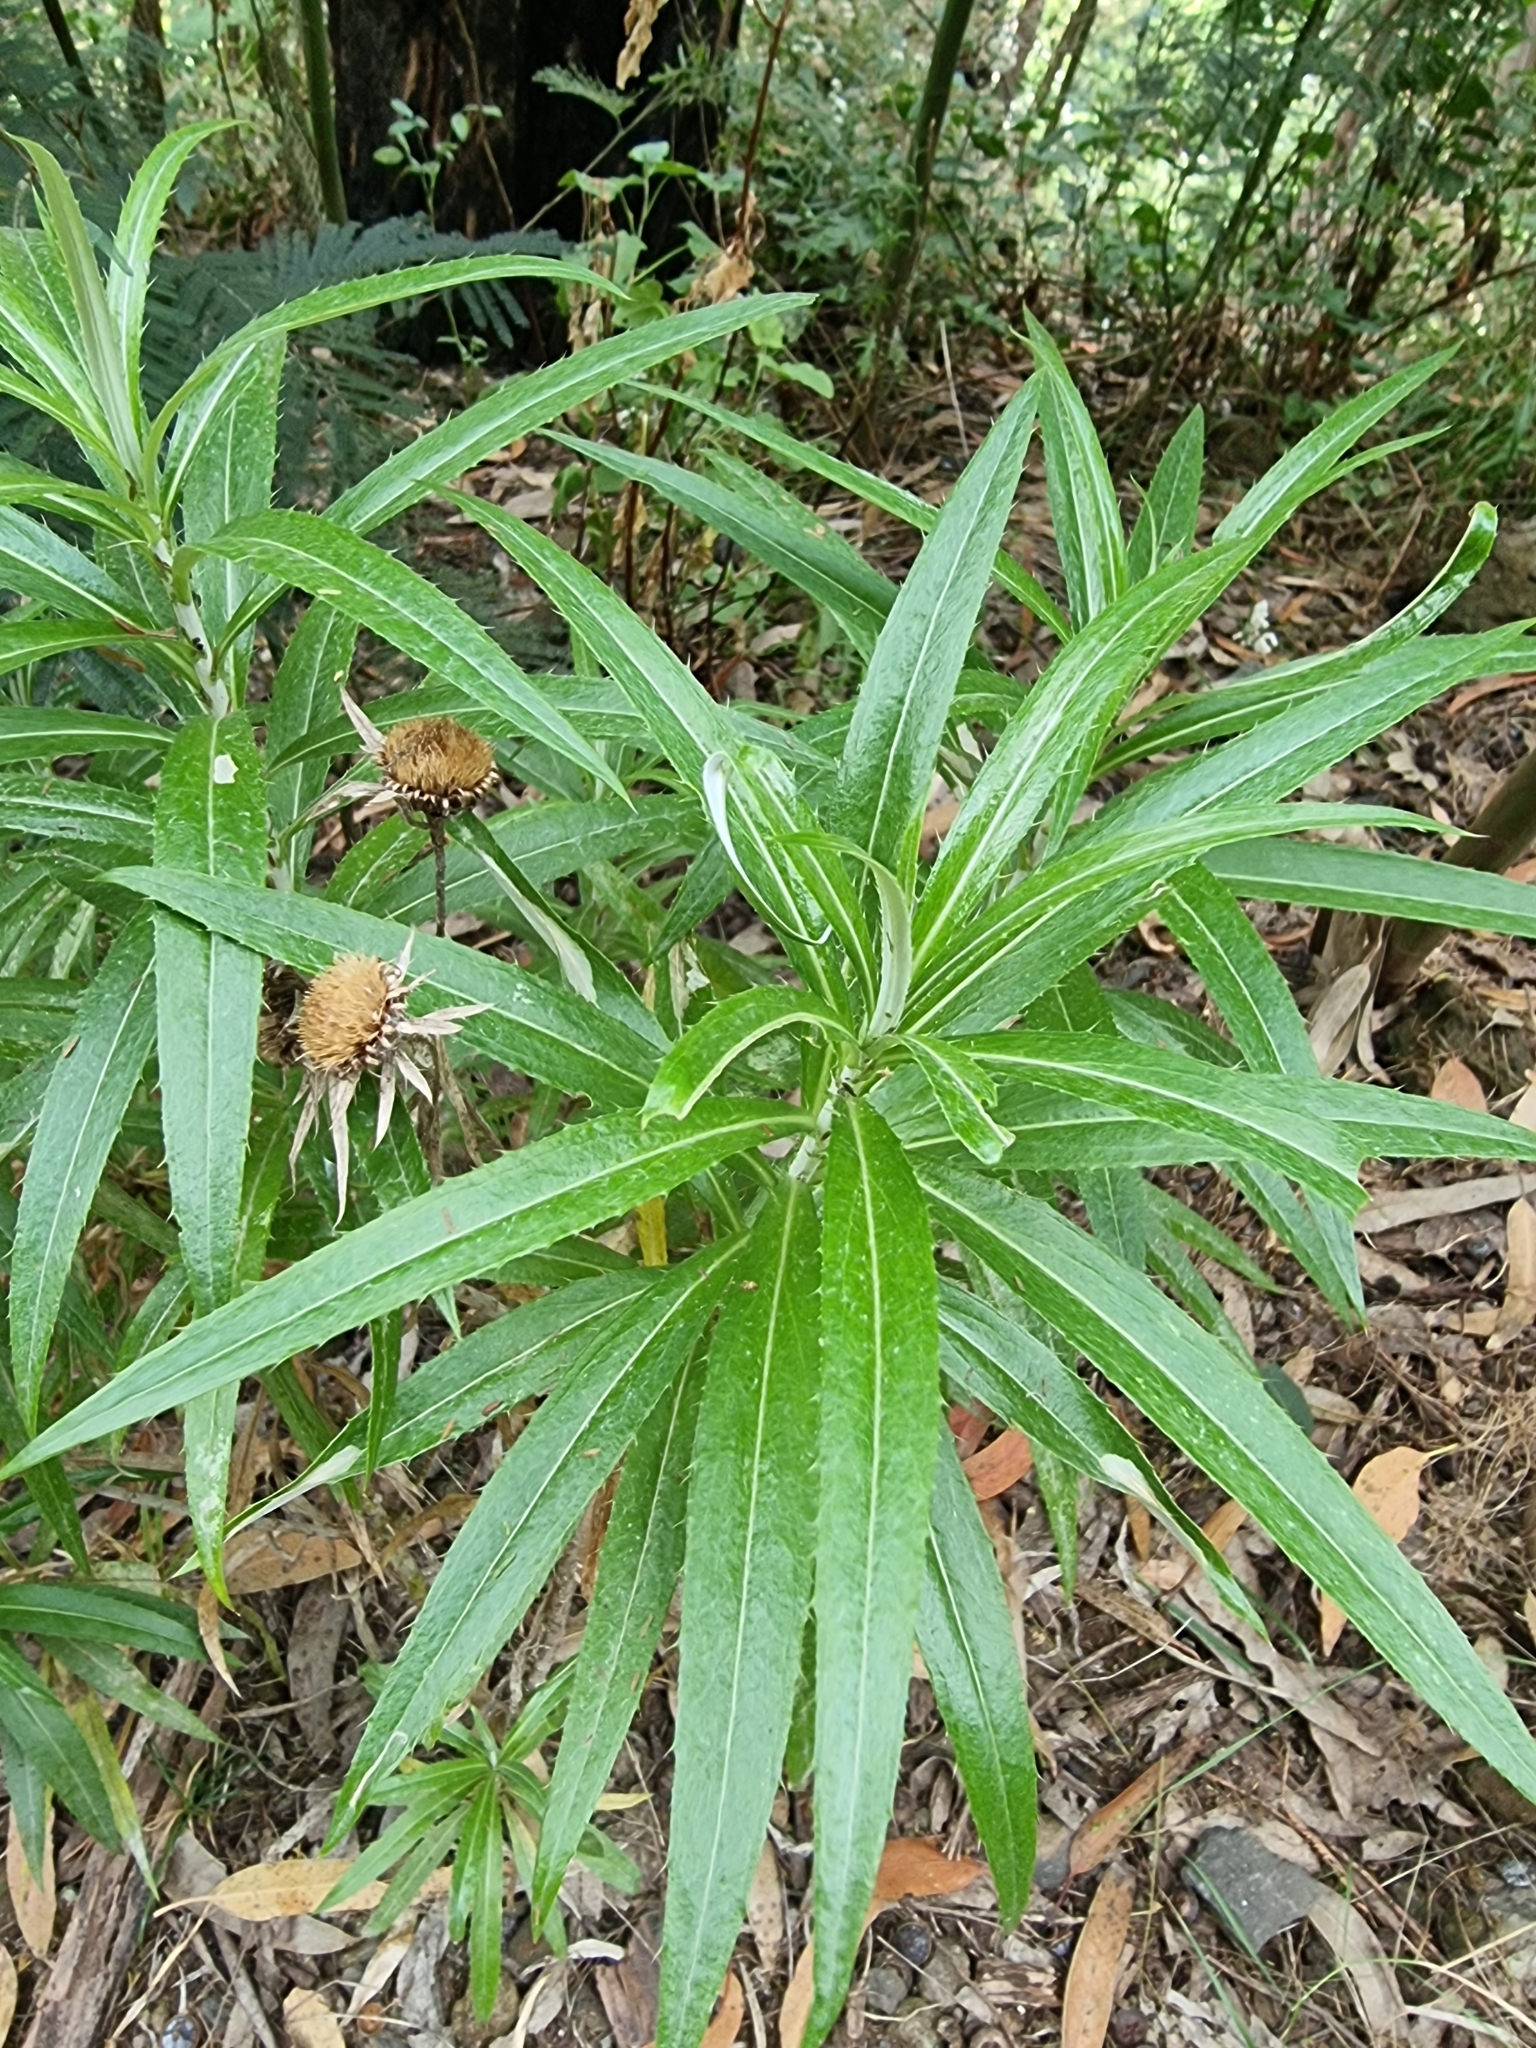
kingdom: Plantae
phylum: Tracheophyta
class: Magnoliopsida
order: Asterales
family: Asteraceae
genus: Carlina
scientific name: Carlina salicifolia
